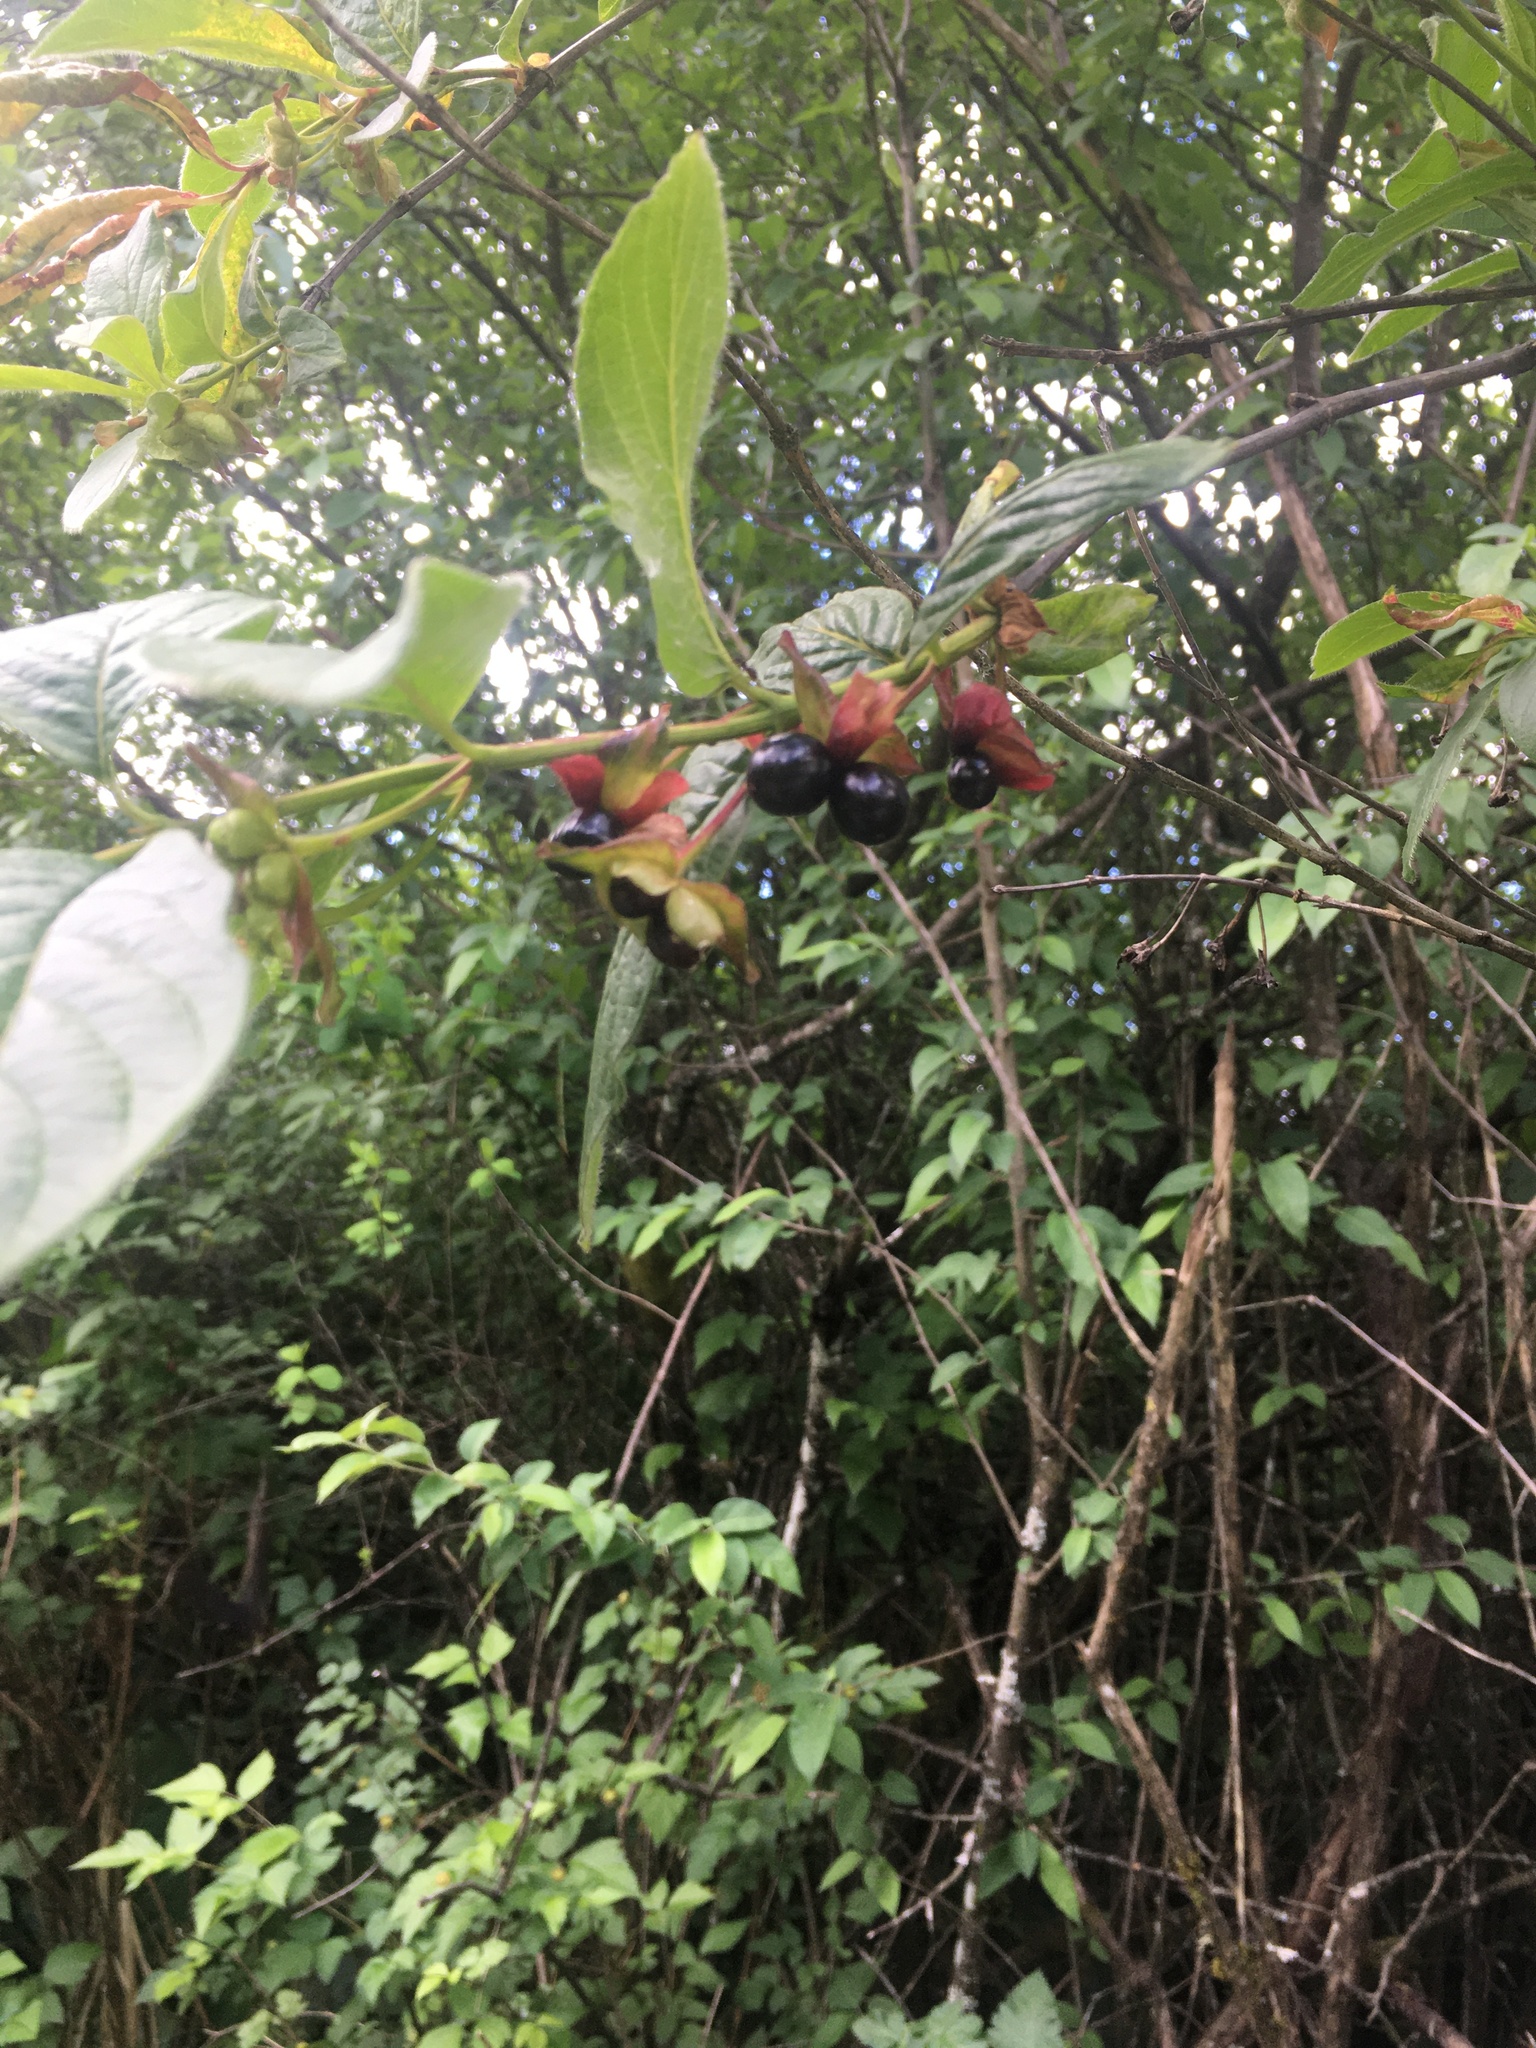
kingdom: Plantae
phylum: Tracheophyta
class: Magnoliopsida
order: Dipsacales
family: Caprifoliaceae
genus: Lonicera
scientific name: Lonicera involucrata
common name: Californian honeysuckle
